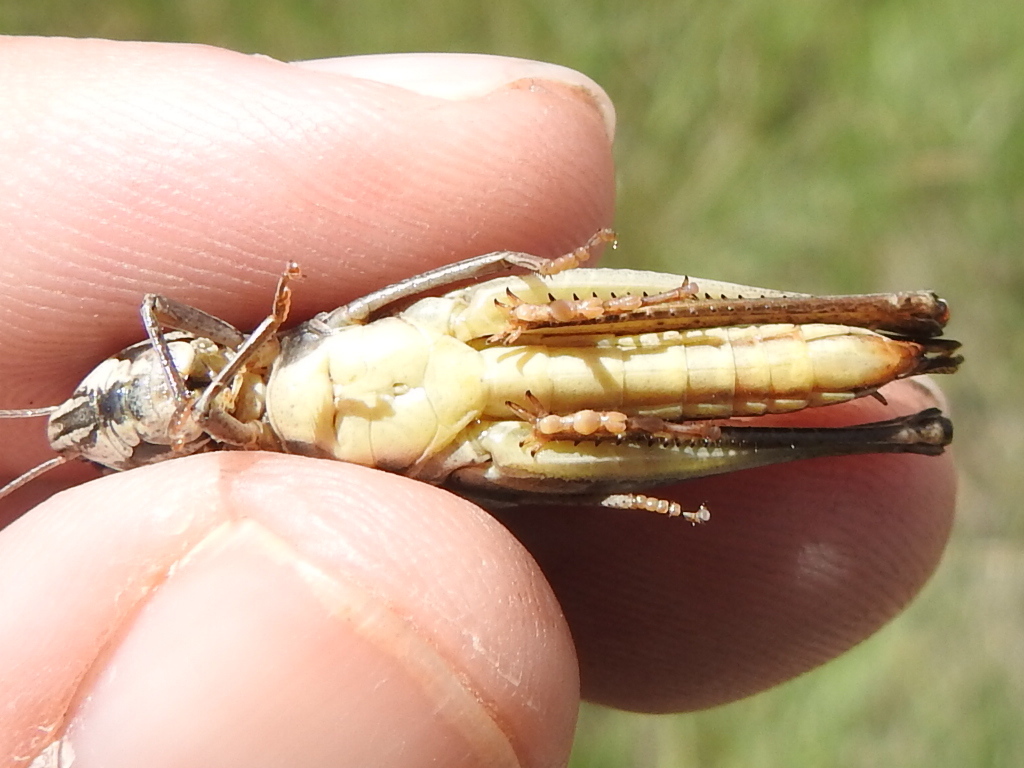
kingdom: Animalia
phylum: Arthropoda
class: Insecta
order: Orthoptera
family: Acrididae
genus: Amblytropidia
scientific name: Amblytropidia mysteca
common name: Brown winter grasshopper
